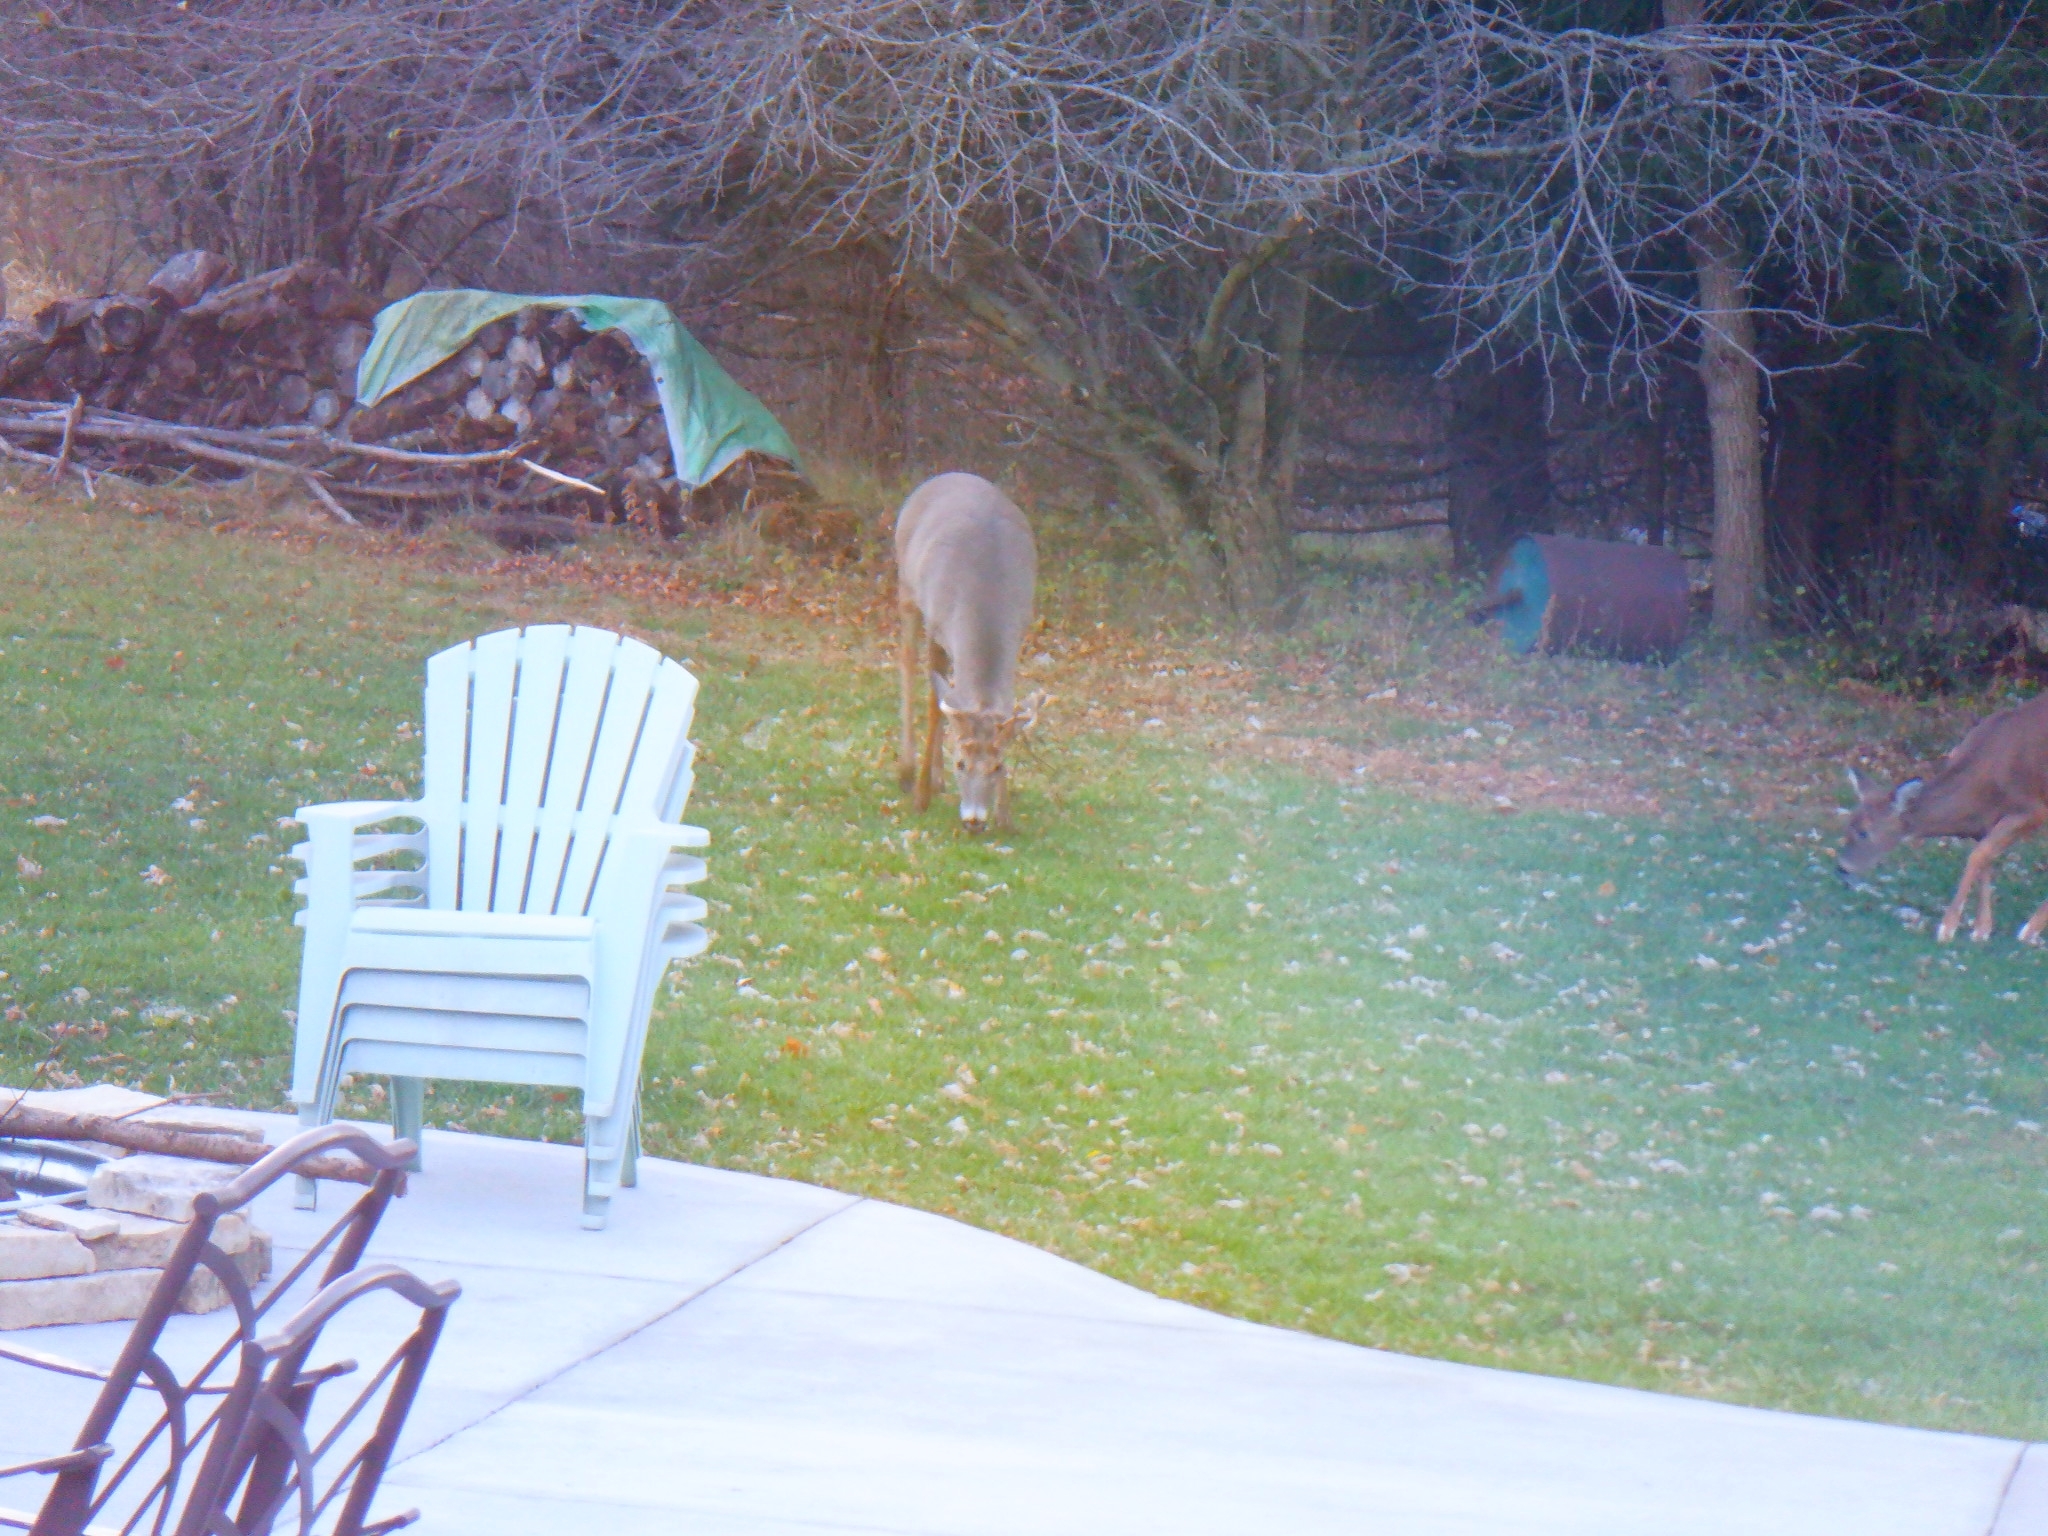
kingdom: Animalia
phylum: Chordata
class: Mammalia
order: Artiodactyla
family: Cervidae
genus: Odocoileus
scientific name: Odocoileus virginianus
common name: White-tailed deer
